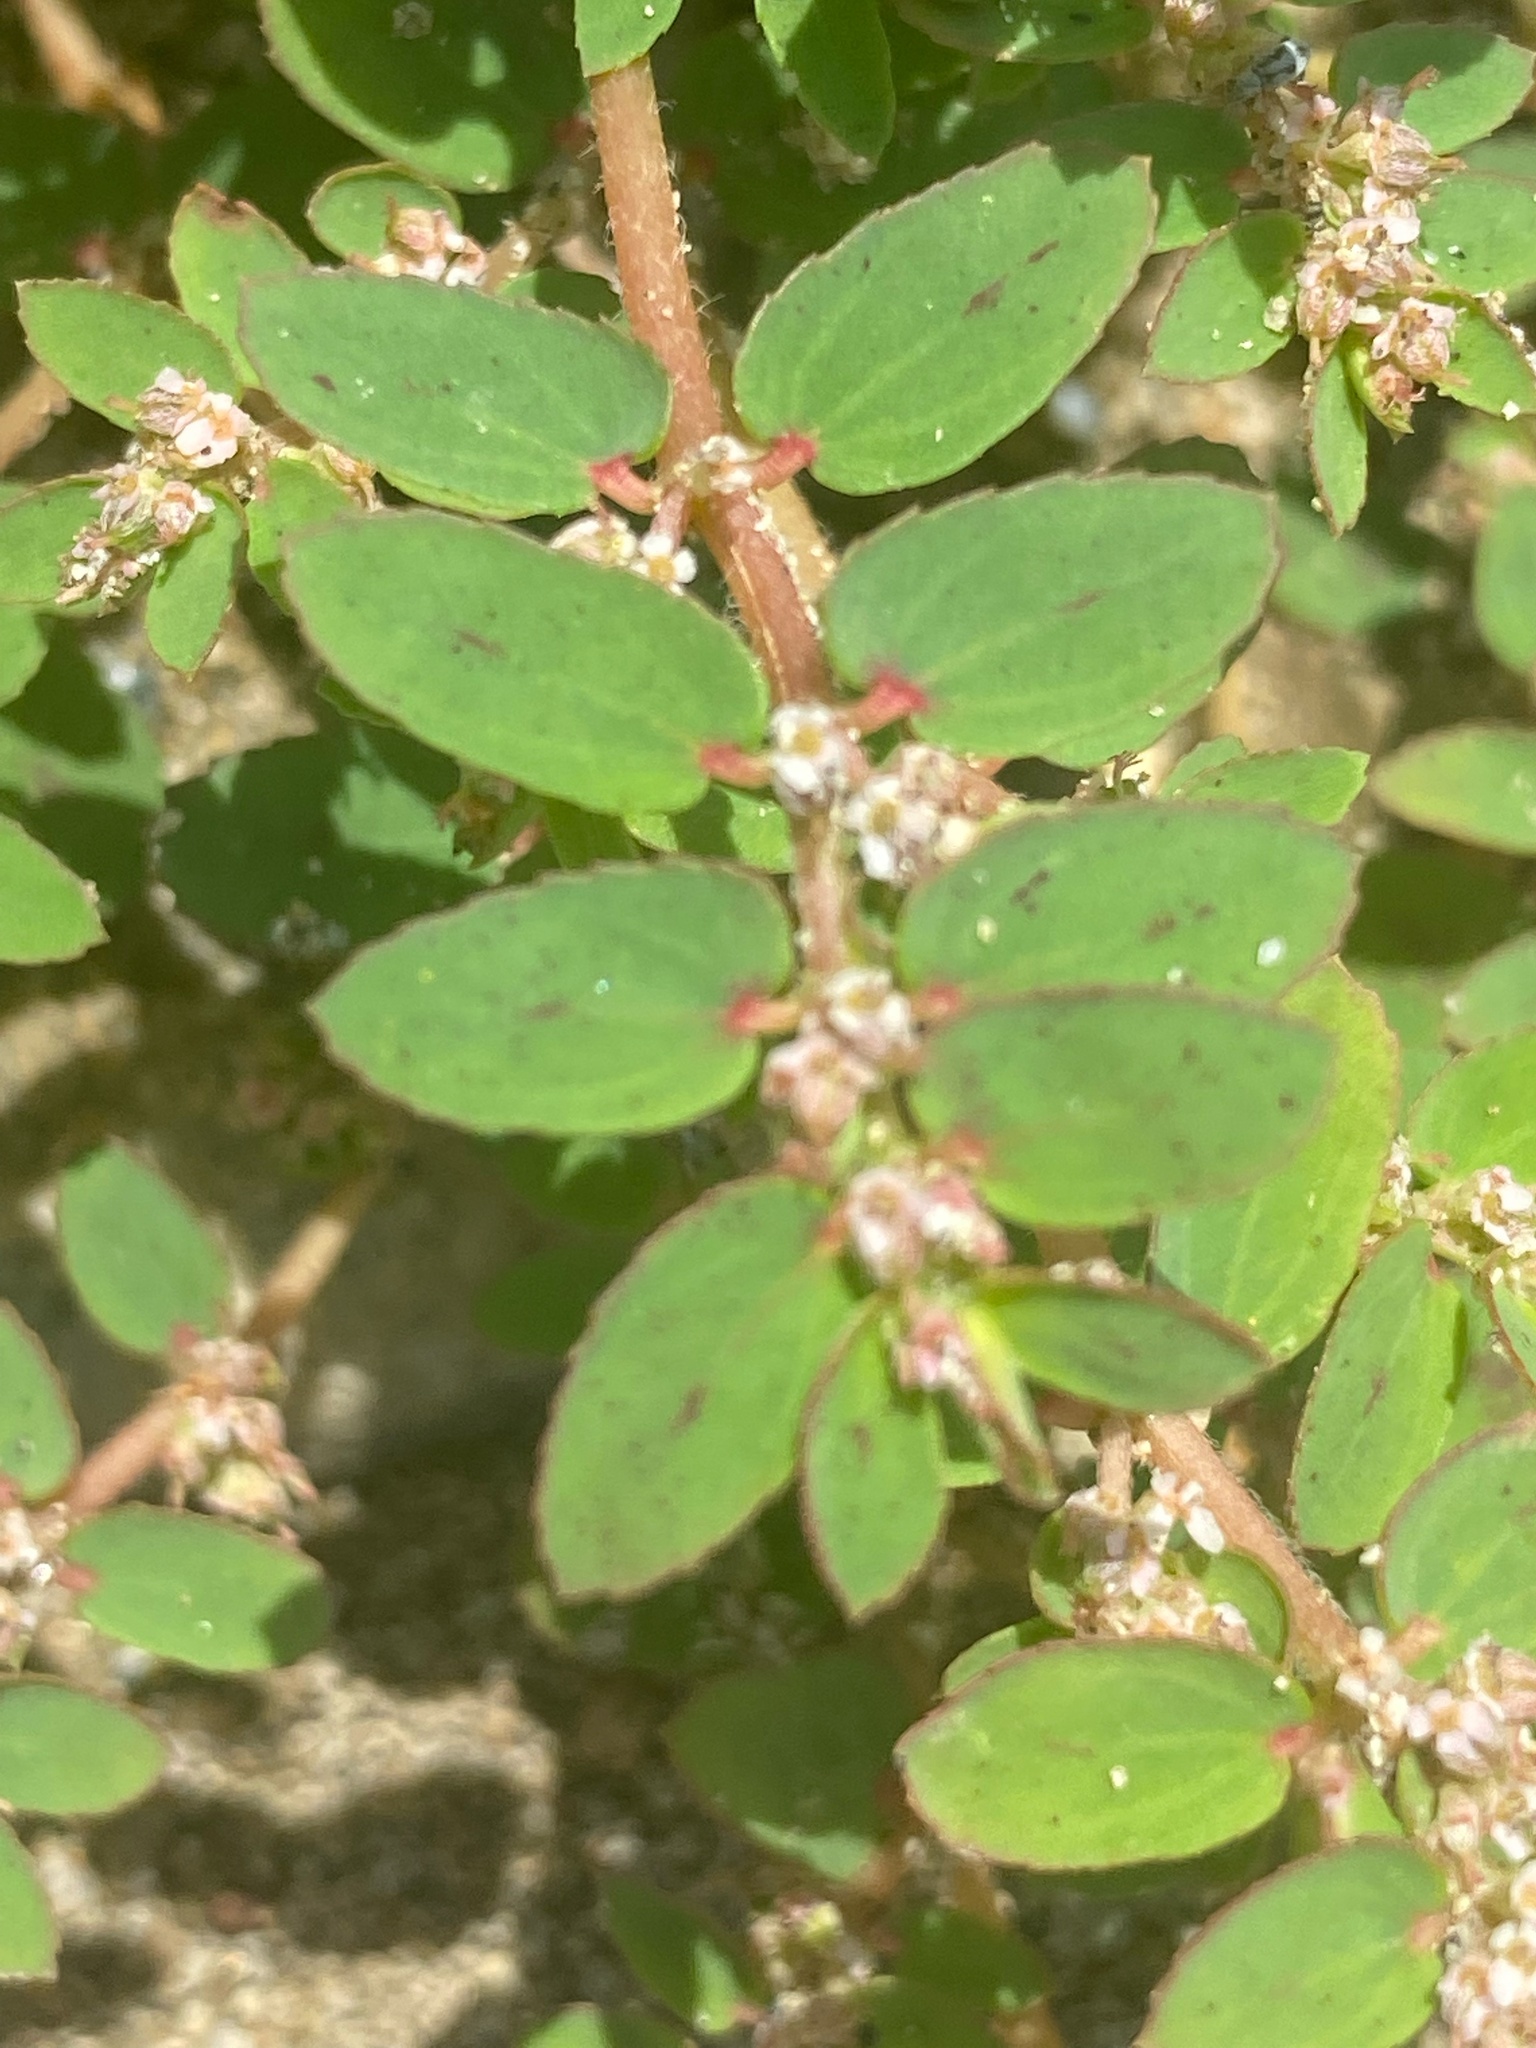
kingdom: Plantae
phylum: Tracheophyta
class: Magnoliopsida
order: Malpighiales
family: Euphorbiaceae
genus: Euphorbia
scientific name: Euphorbia thymifolia
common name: Gulf sandmat
